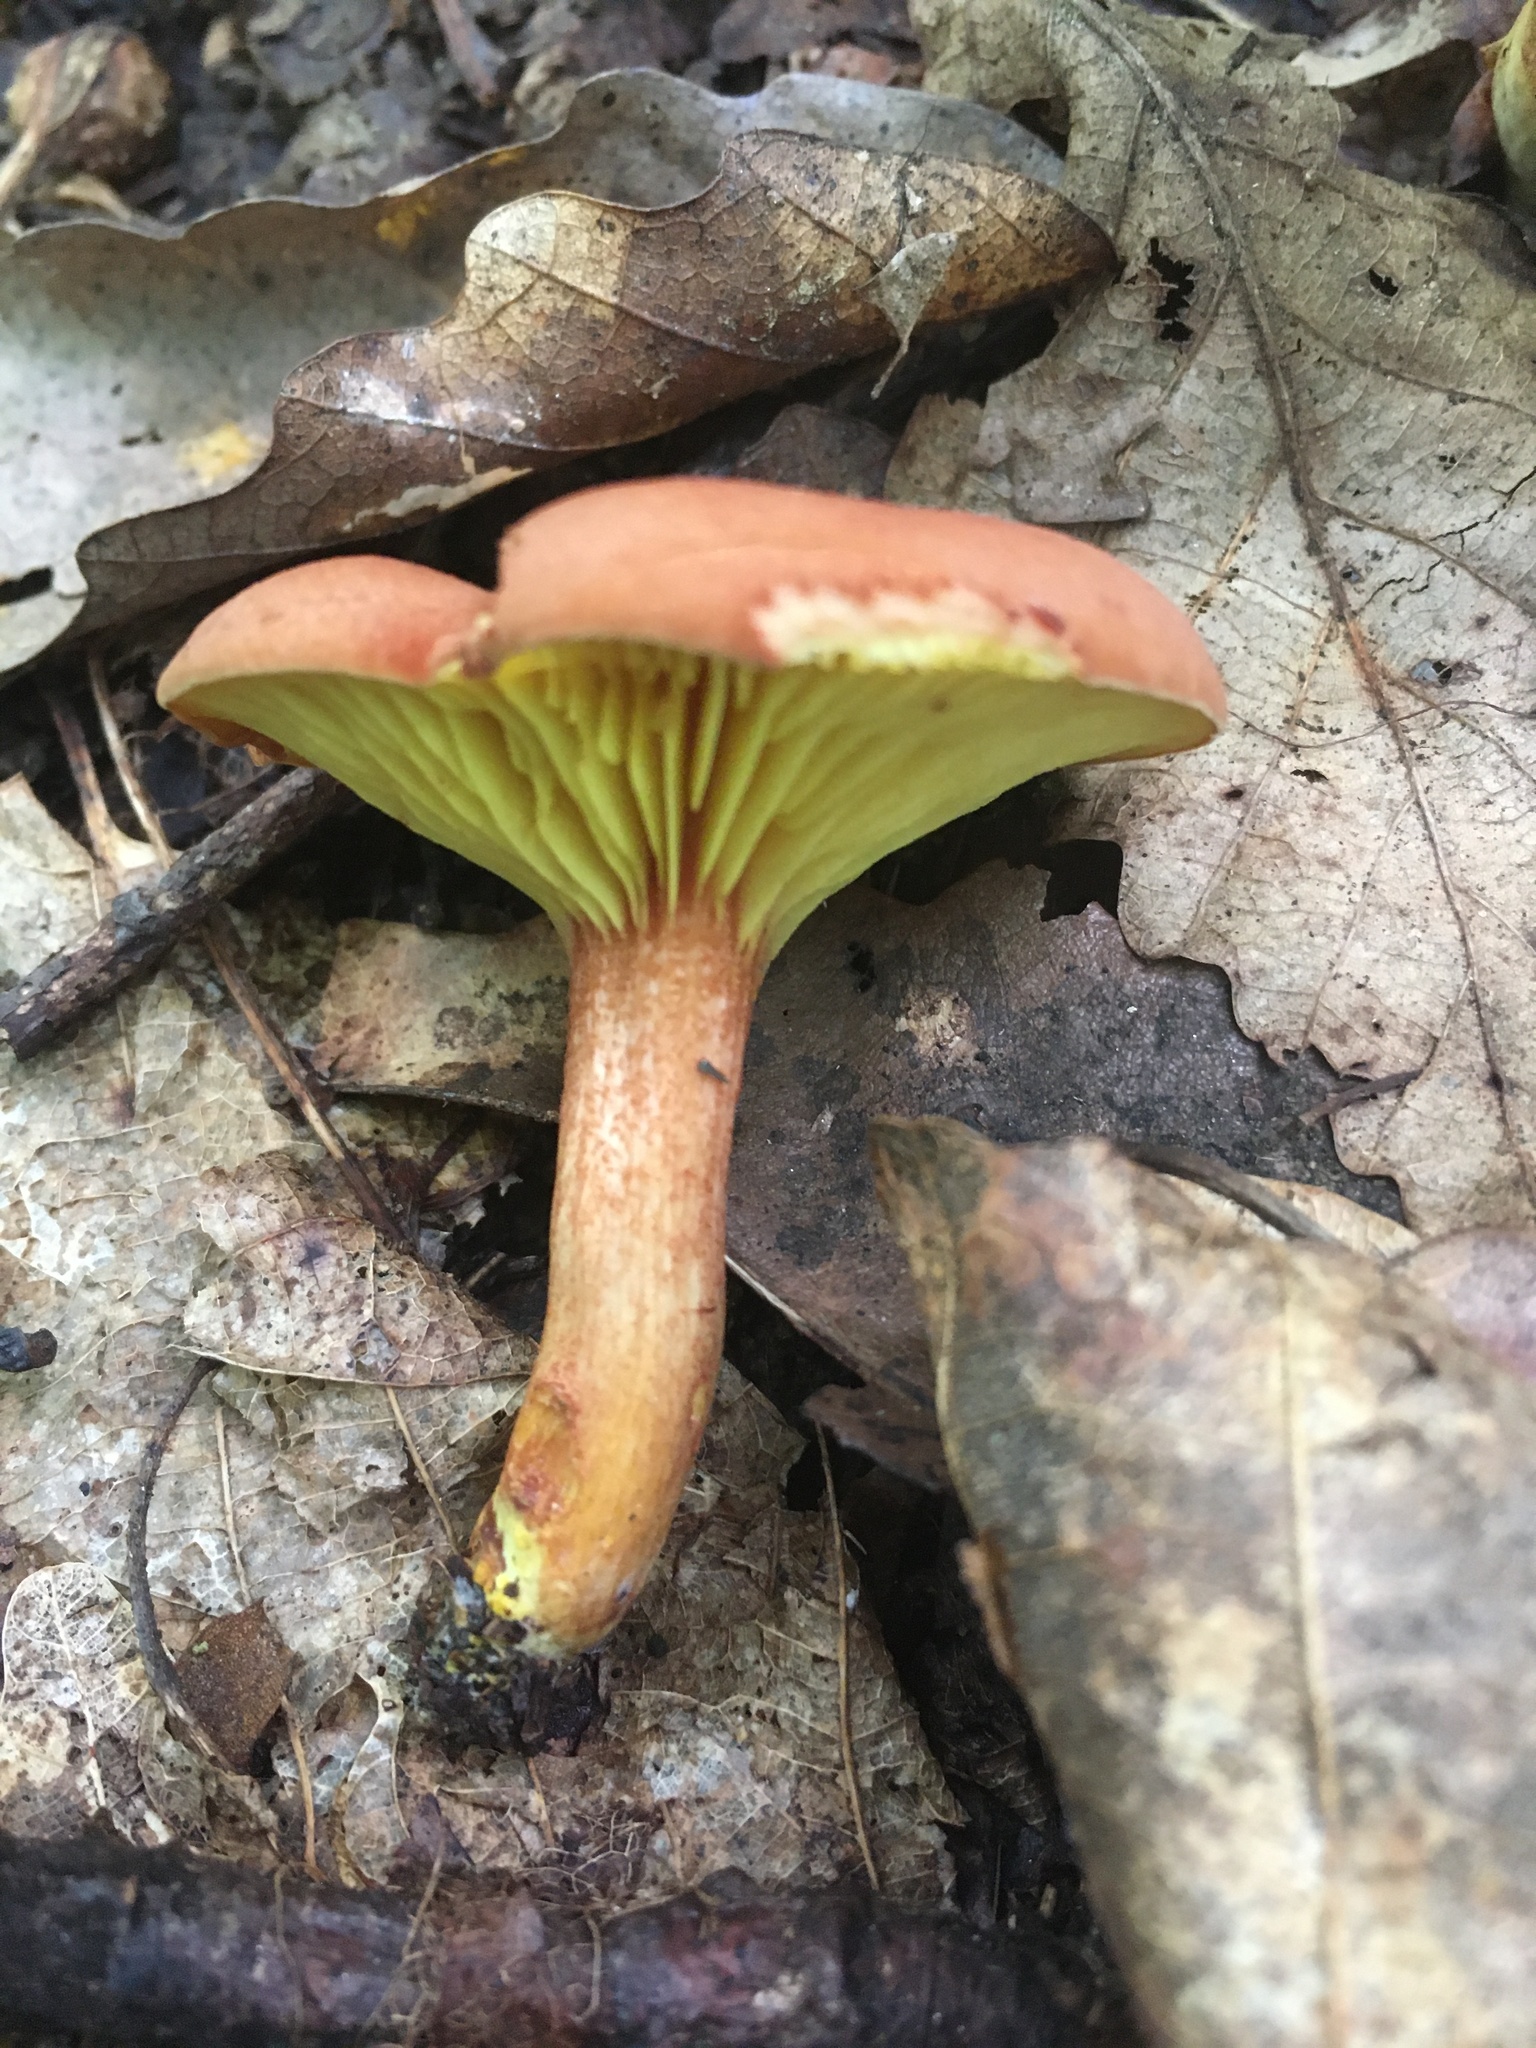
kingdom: Fungi
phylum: Basidiomycota
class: Agaricomycetes
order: Boletales
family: Boletaceae
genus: Phylloporus
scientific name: Phylloporus rhodoxanthus
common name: Golden gilled bolete
